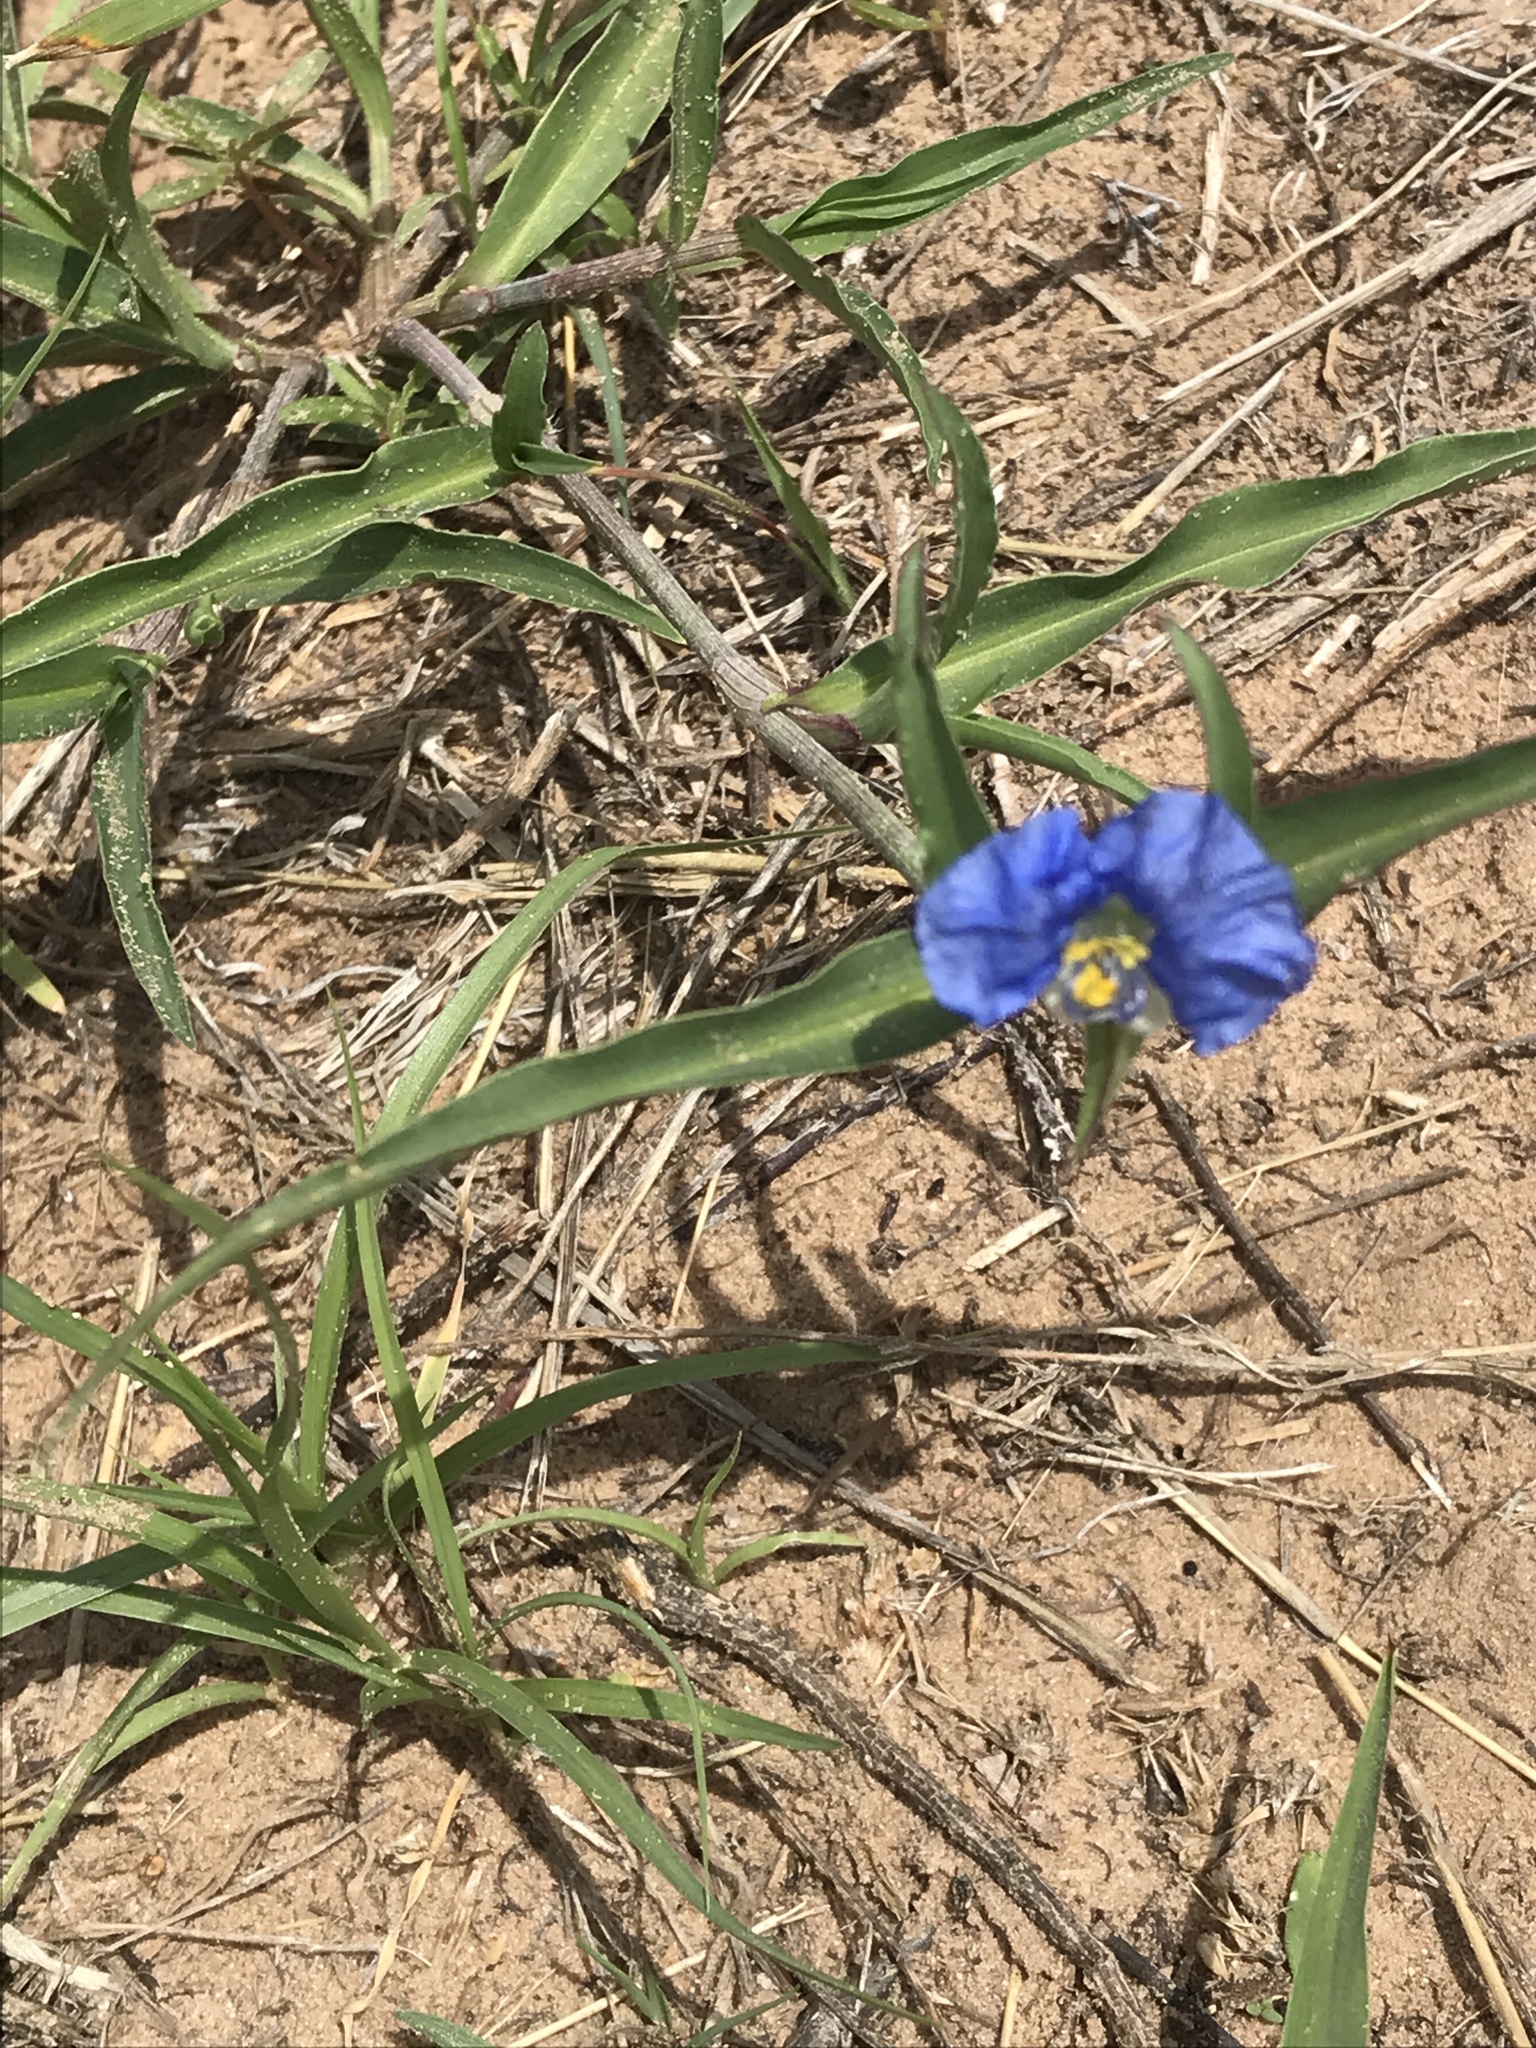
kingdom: Plantae
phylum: Tracheophyta
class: Liliopsida
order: Commelinales
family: Commelinaceae
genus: Commelina
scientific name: Commelina erecta
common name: Blousel blommetjie
